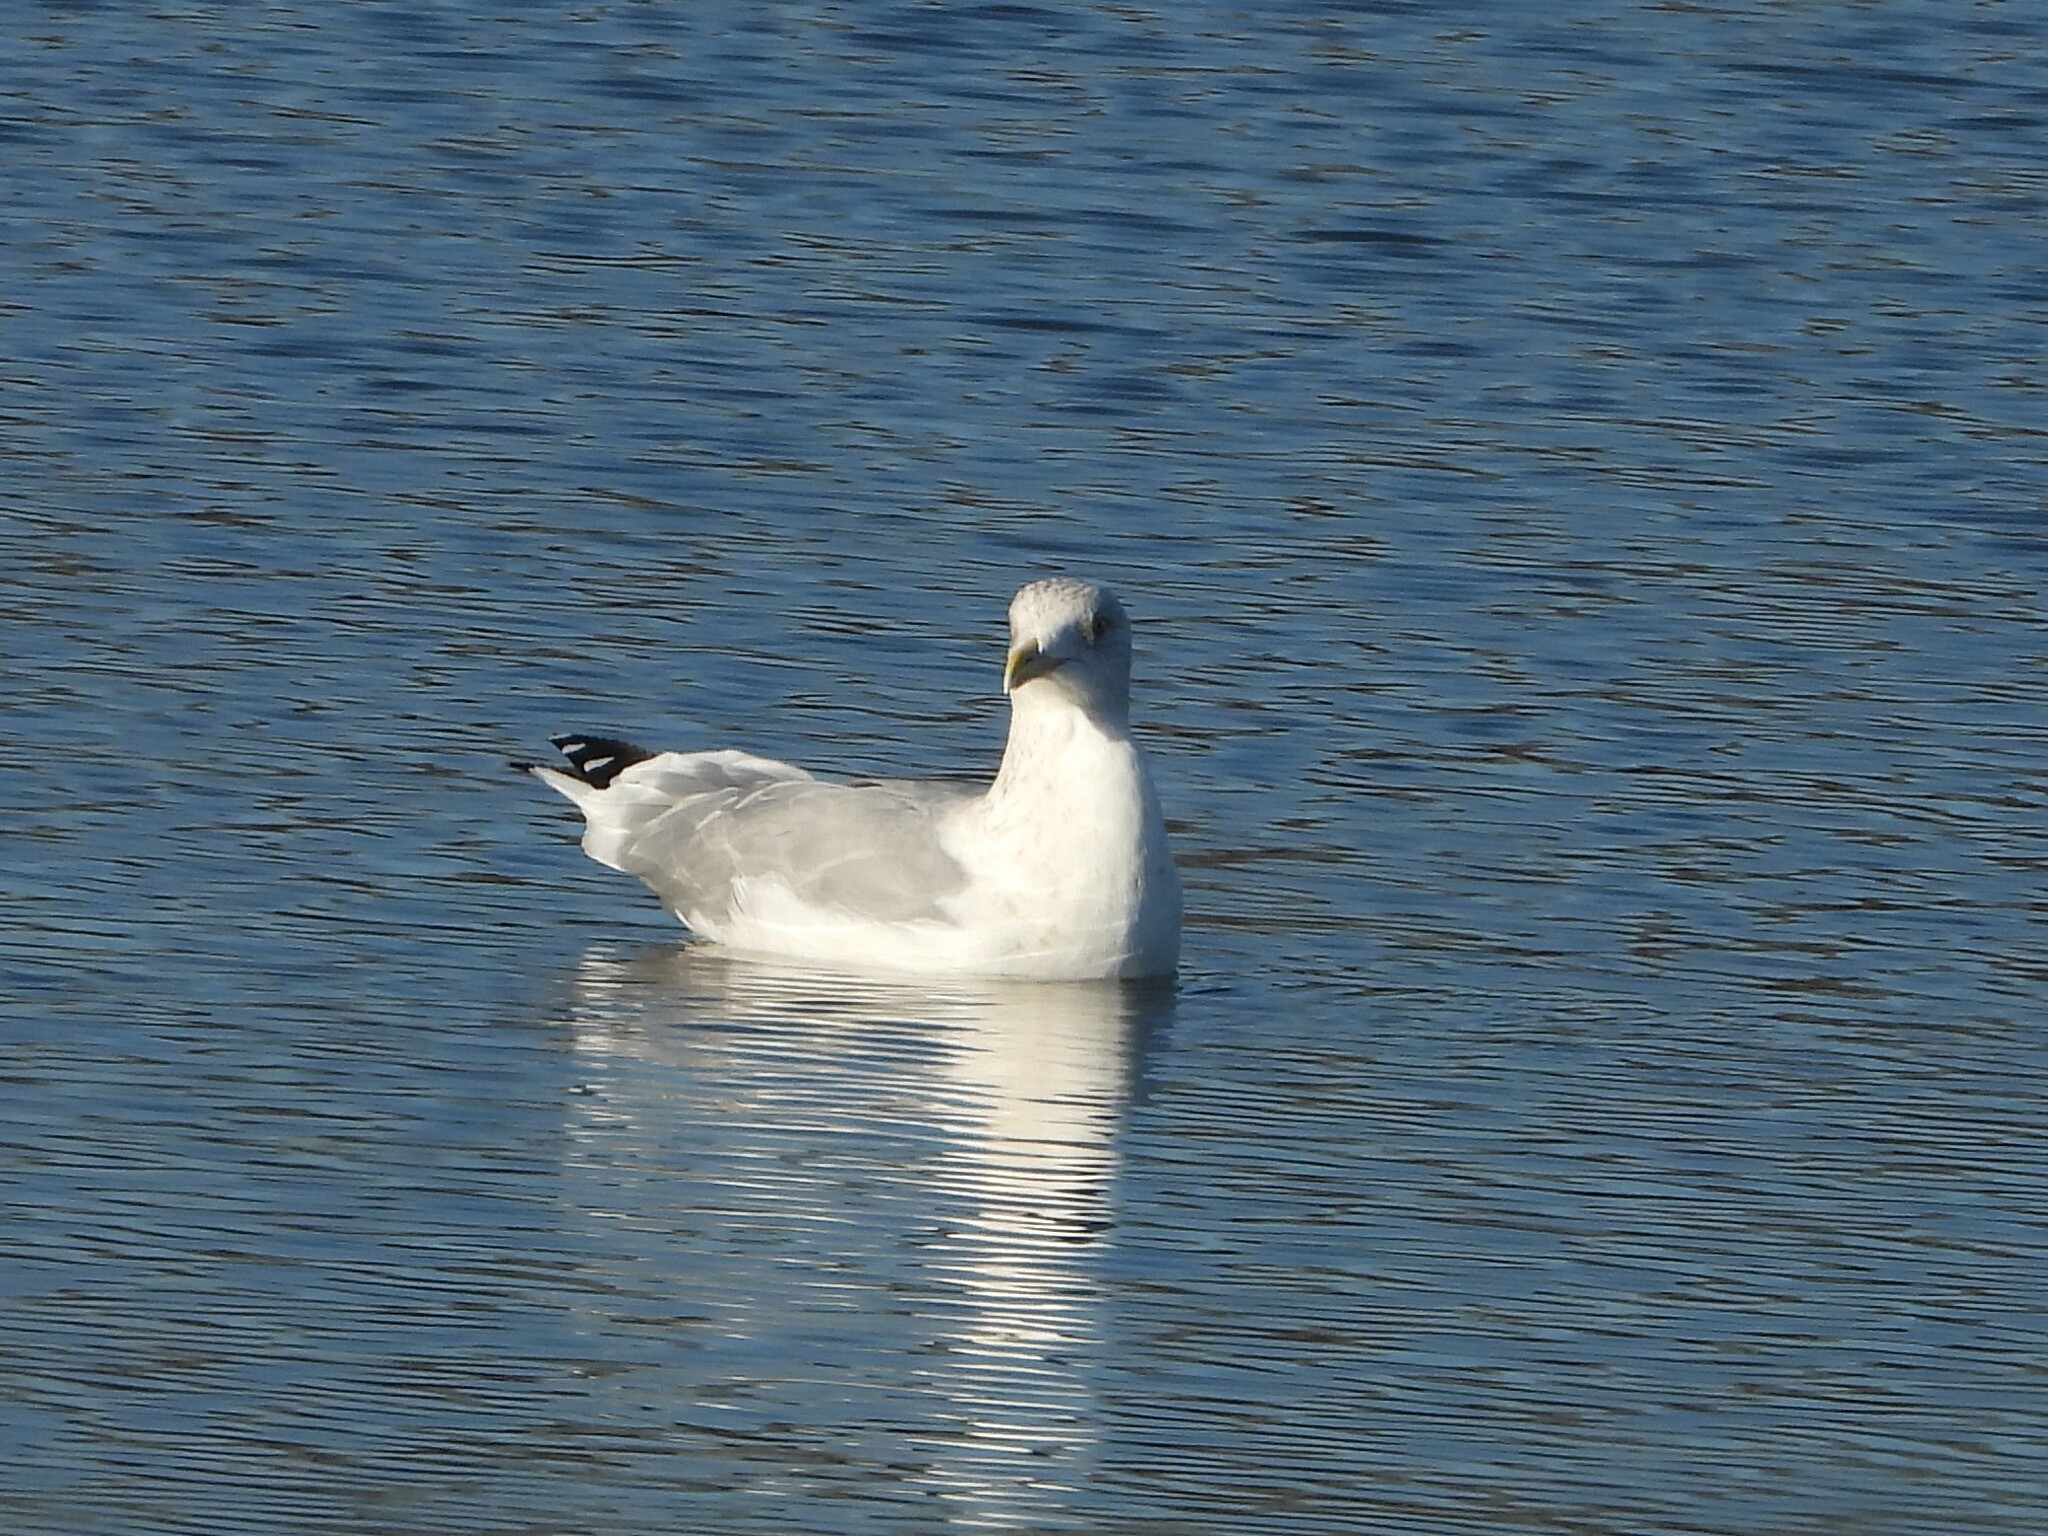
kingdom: Animalia
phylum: Chordata
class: Aves
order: Charadriiformes
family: Laridae
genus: Larus
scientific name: Larus argentatus
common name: Herring gull
